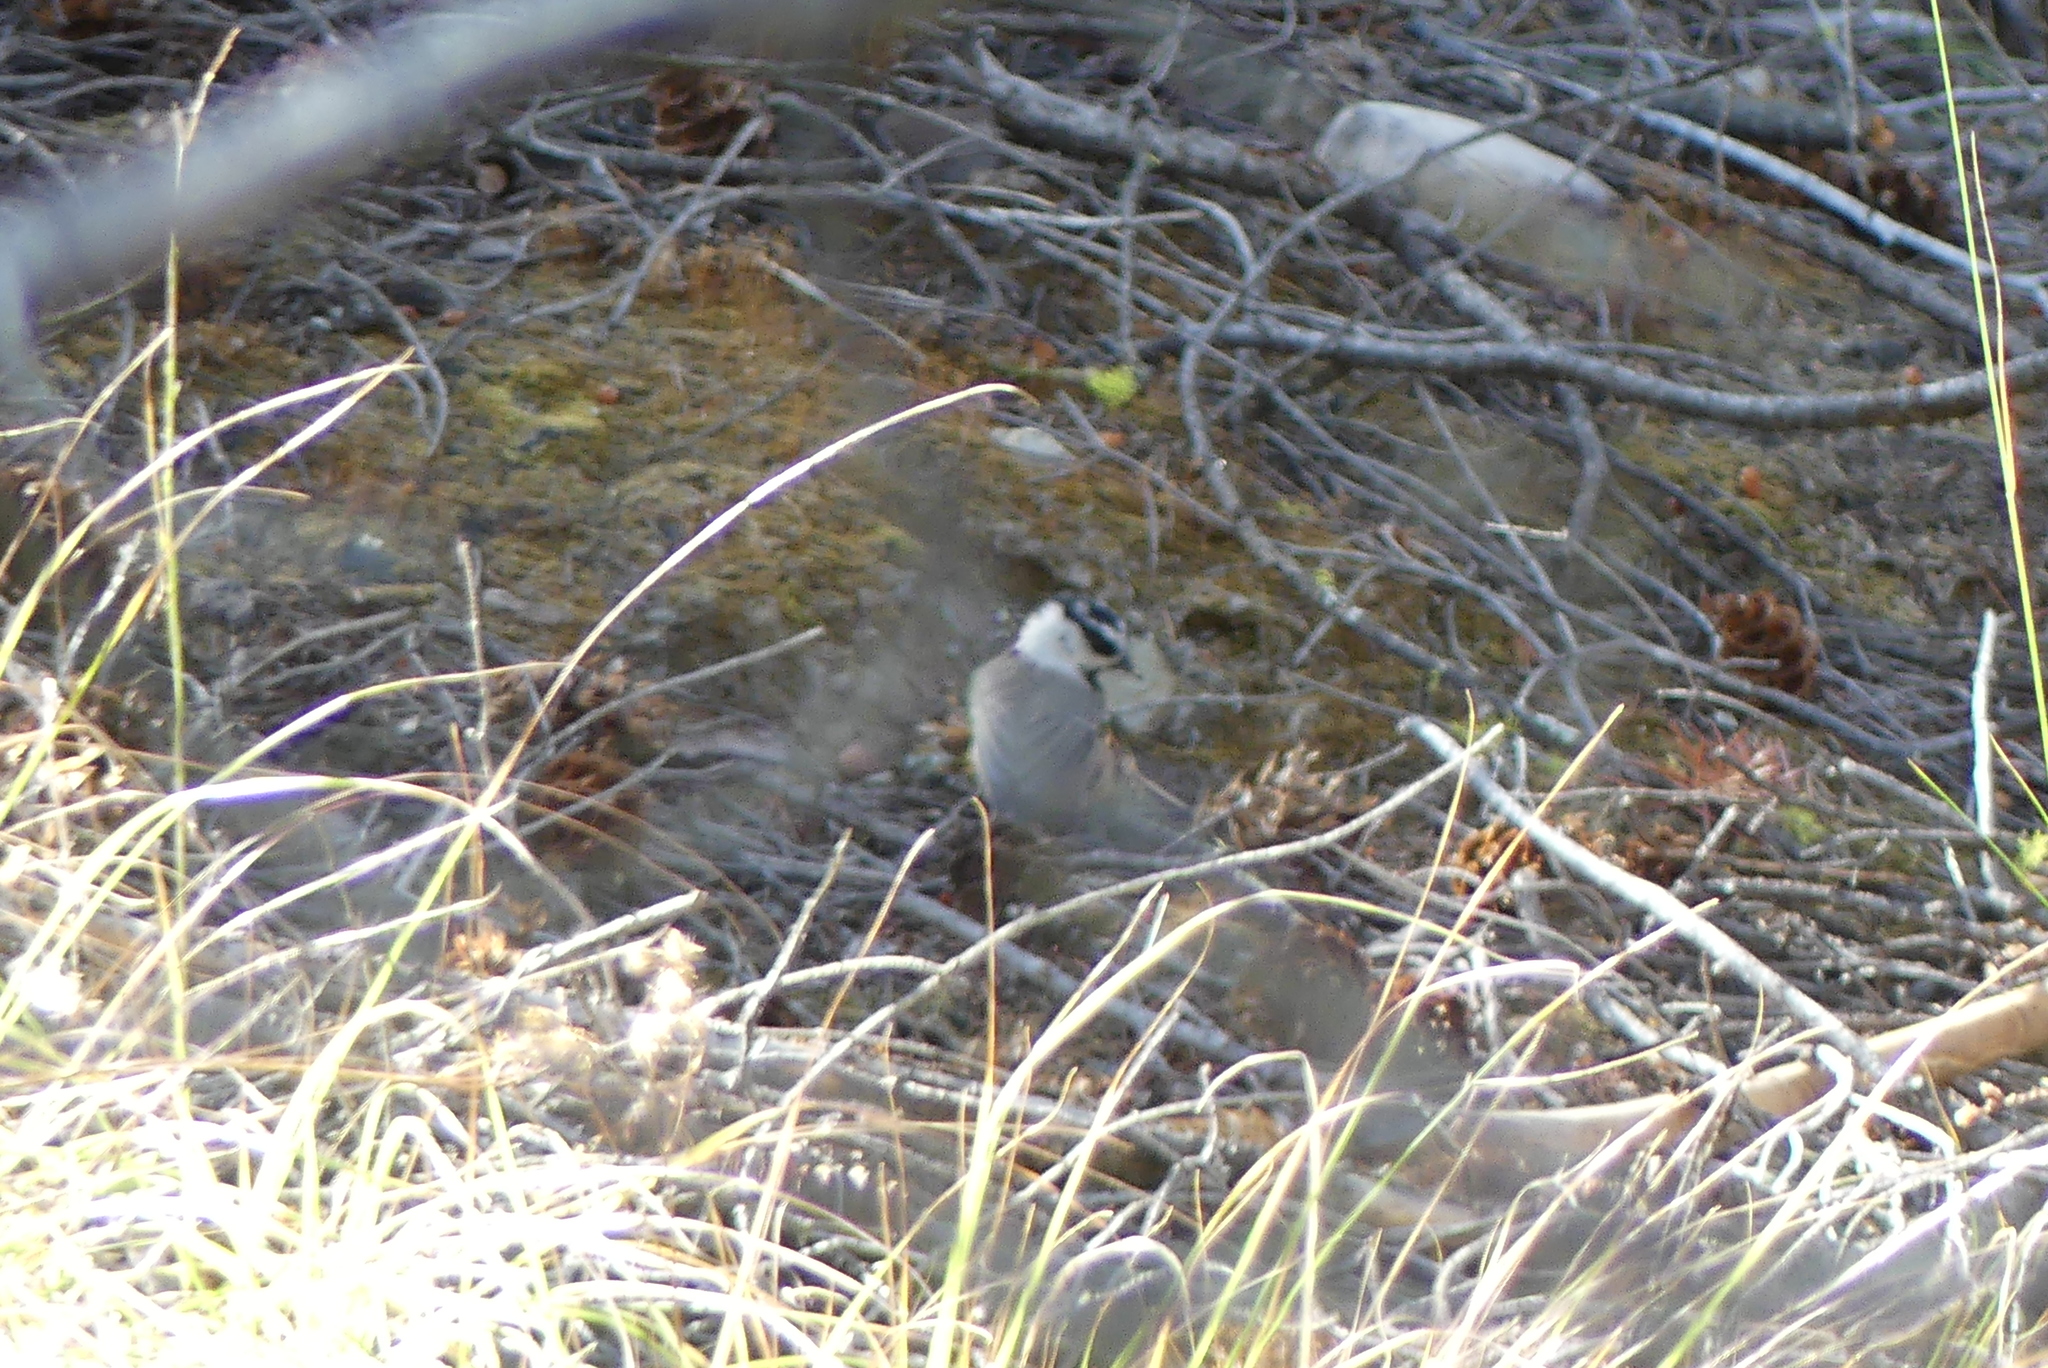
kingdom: Animalia
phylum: Chordata
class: Aves
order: Passeriformes
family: Paridae
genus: Poecile
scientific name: Poecile gambeli
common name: Mountain chickadee
